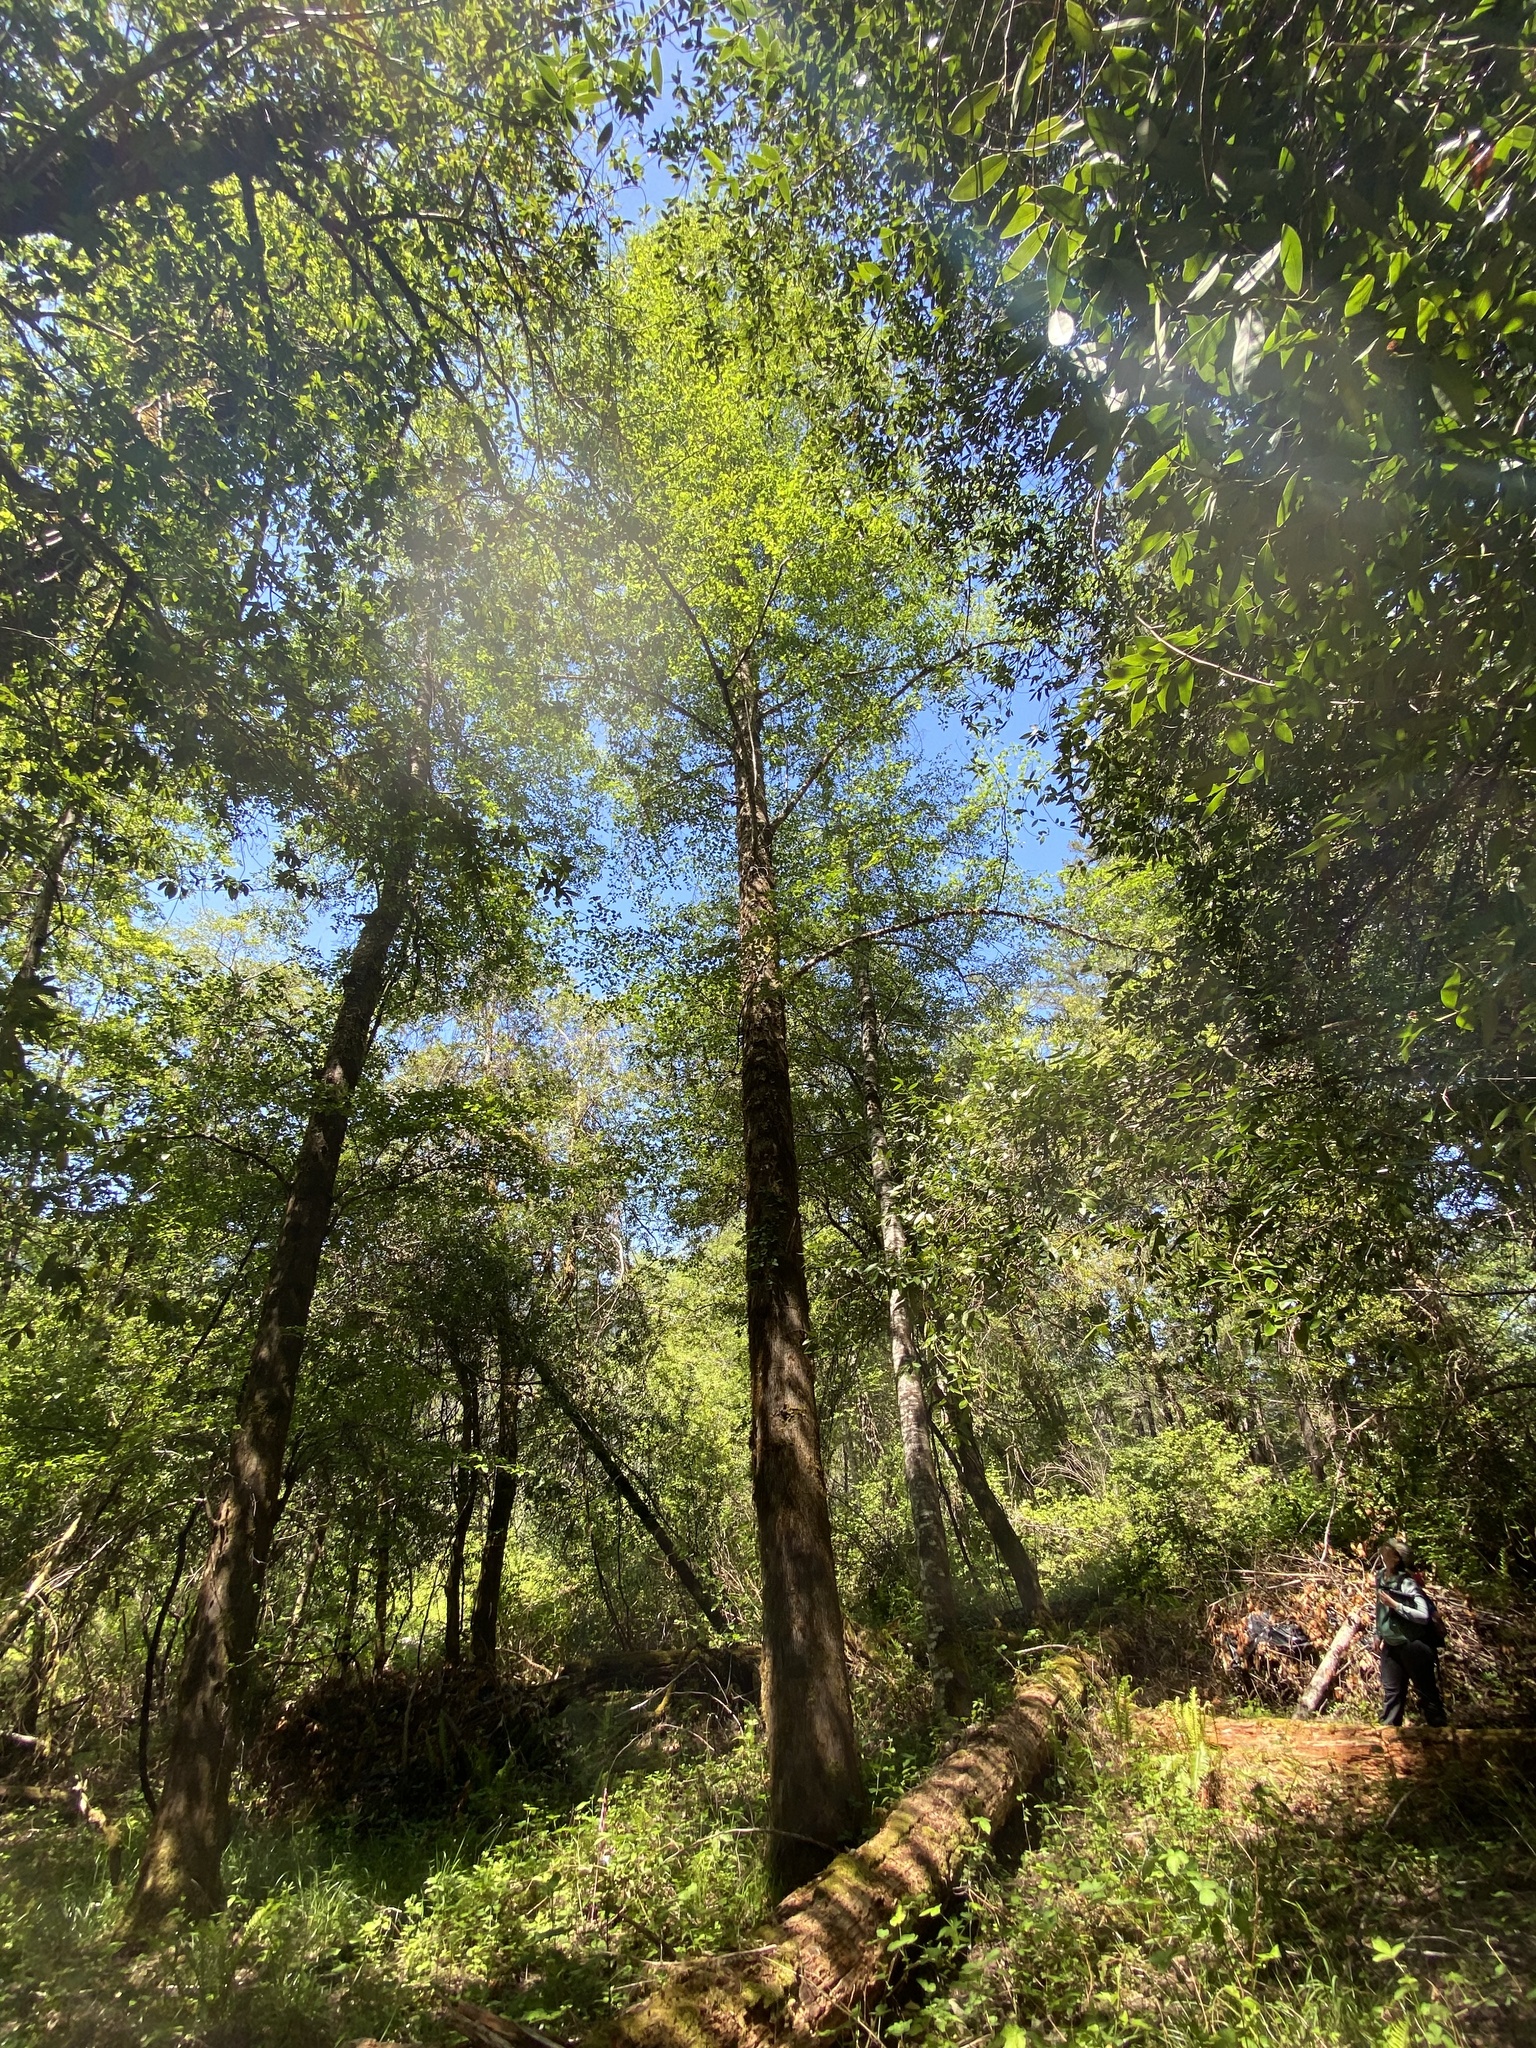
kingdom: Plantae
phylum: Tracheophyta
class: Magnoliopsida
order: Fagales
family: Betulaceae
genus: Alnus
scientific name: Alnus rhombifolia
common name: California alder
